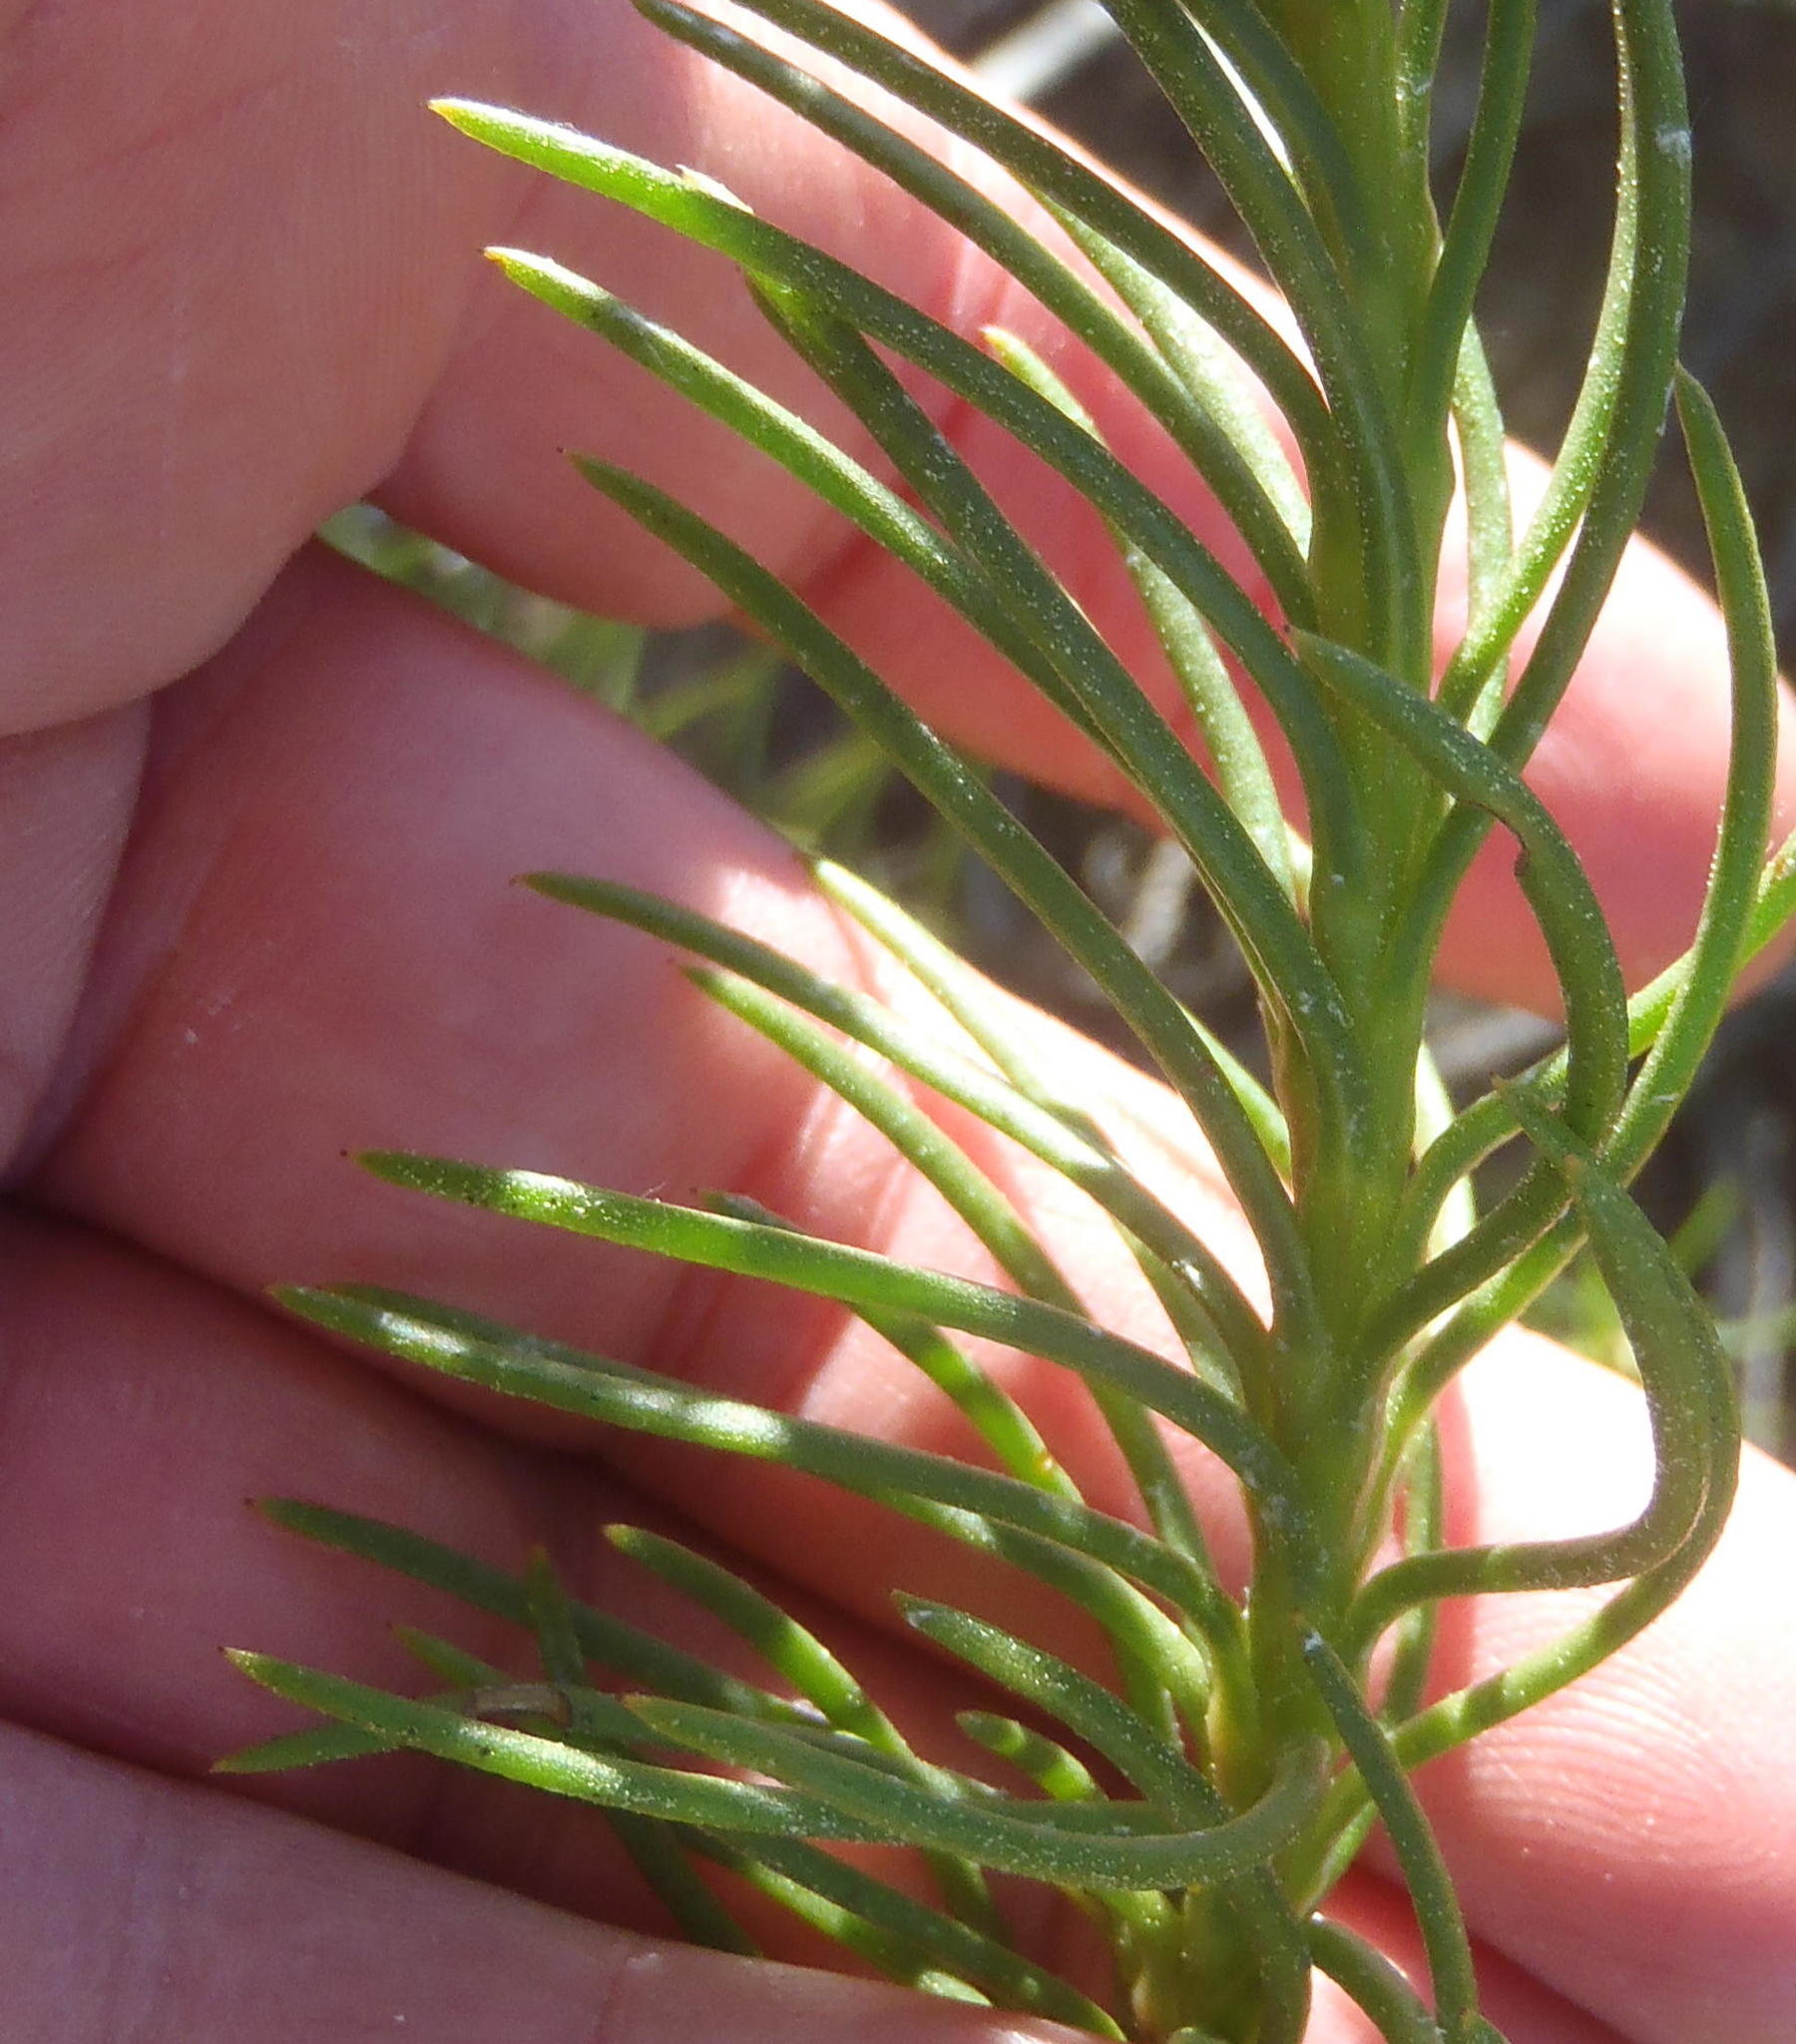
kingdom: Plantae
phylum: Tracheophyta
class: Magnoliopsida
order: Asterales
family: Asteraceae
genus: Athanasia
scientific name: Athanasia linifolia
